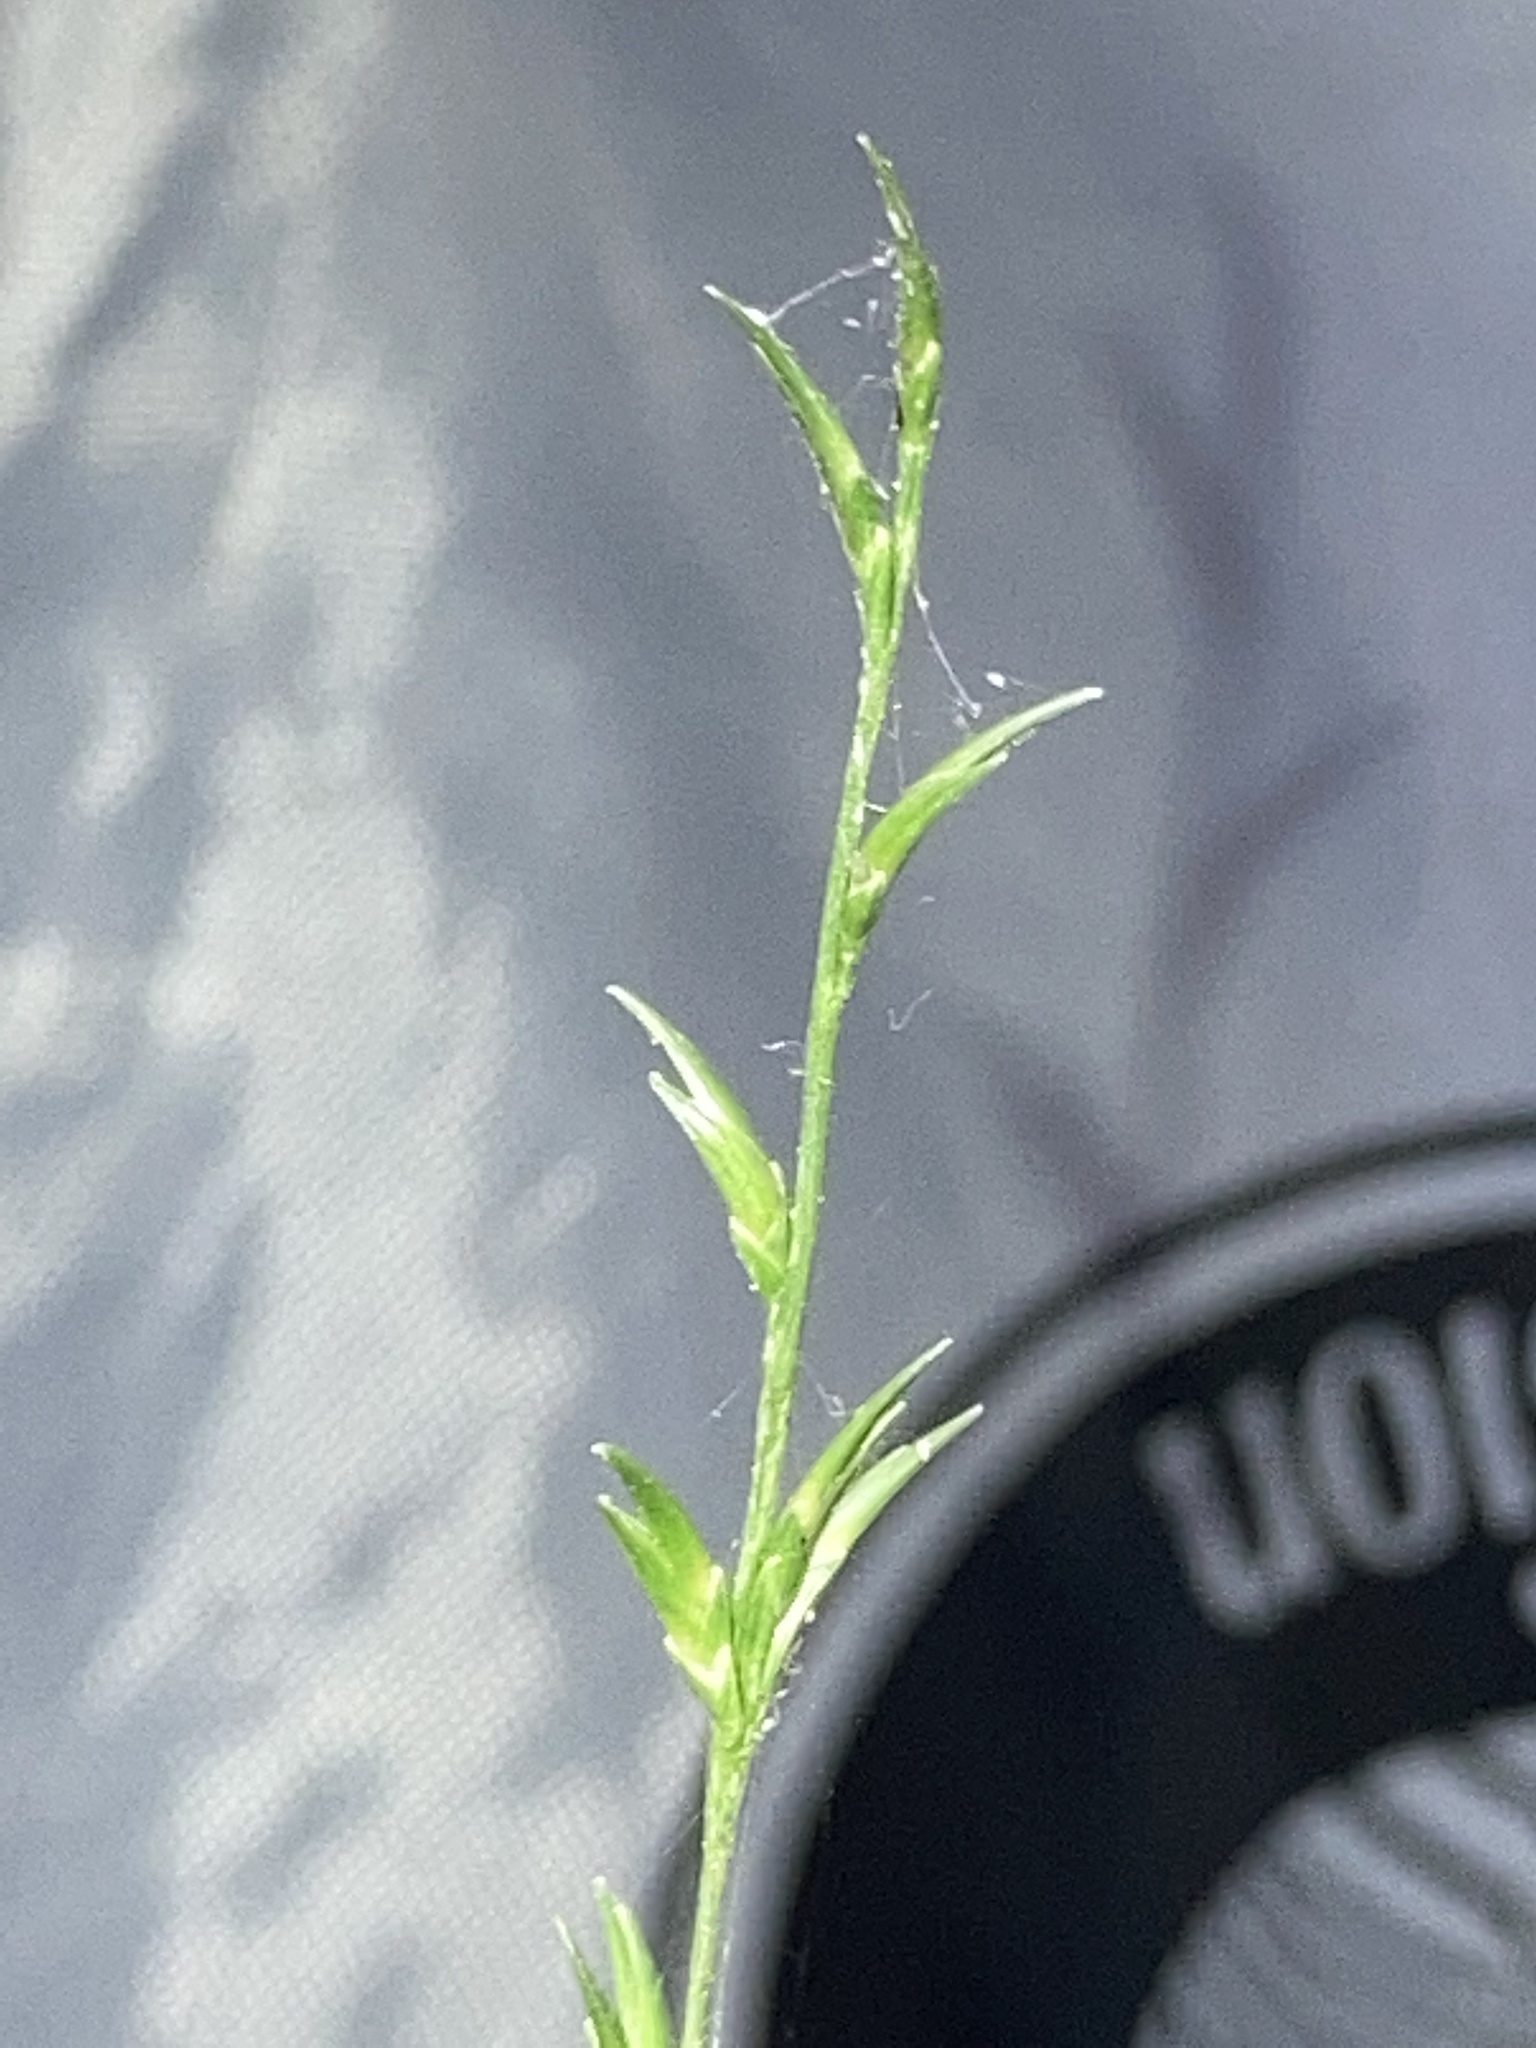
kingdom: Plantae
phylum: Tracheophyta
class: Liliopsida
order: Poales
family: Poaceae
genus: Chasmanthium
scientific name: Chasmanthium laxum
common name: Slender chasmanthium
